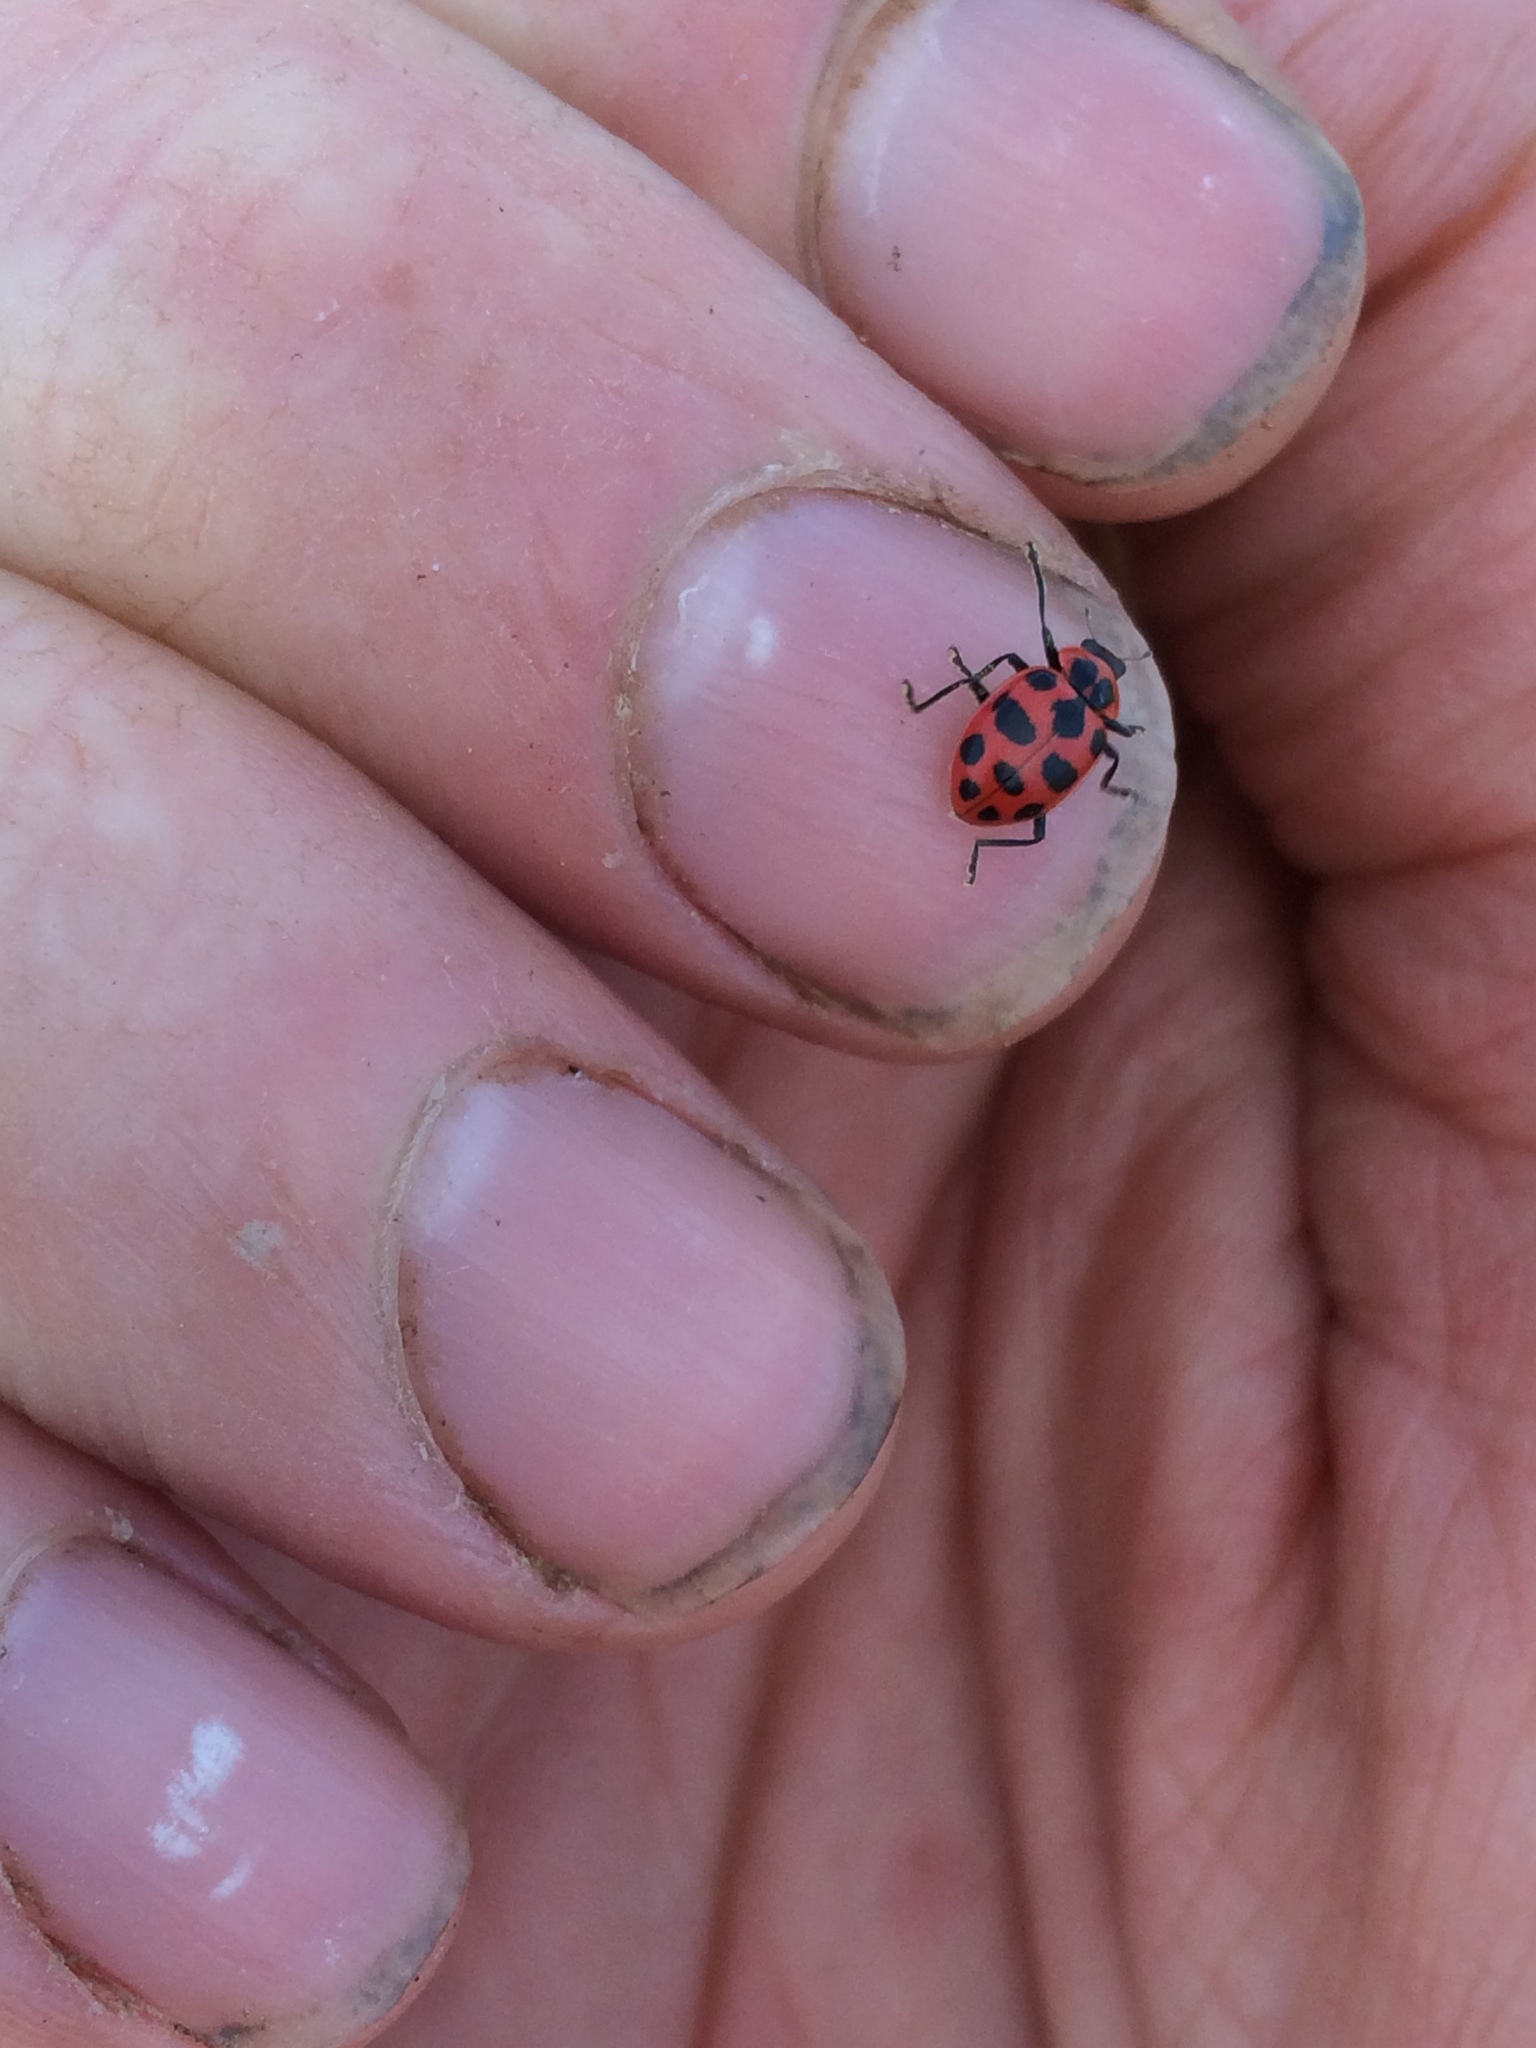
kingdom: Animalia
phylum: Arthropoda
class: Insecta
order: Coleoptera
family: Coccinellidae
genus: Coleomegilla
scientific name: Coleomegilla maculata
